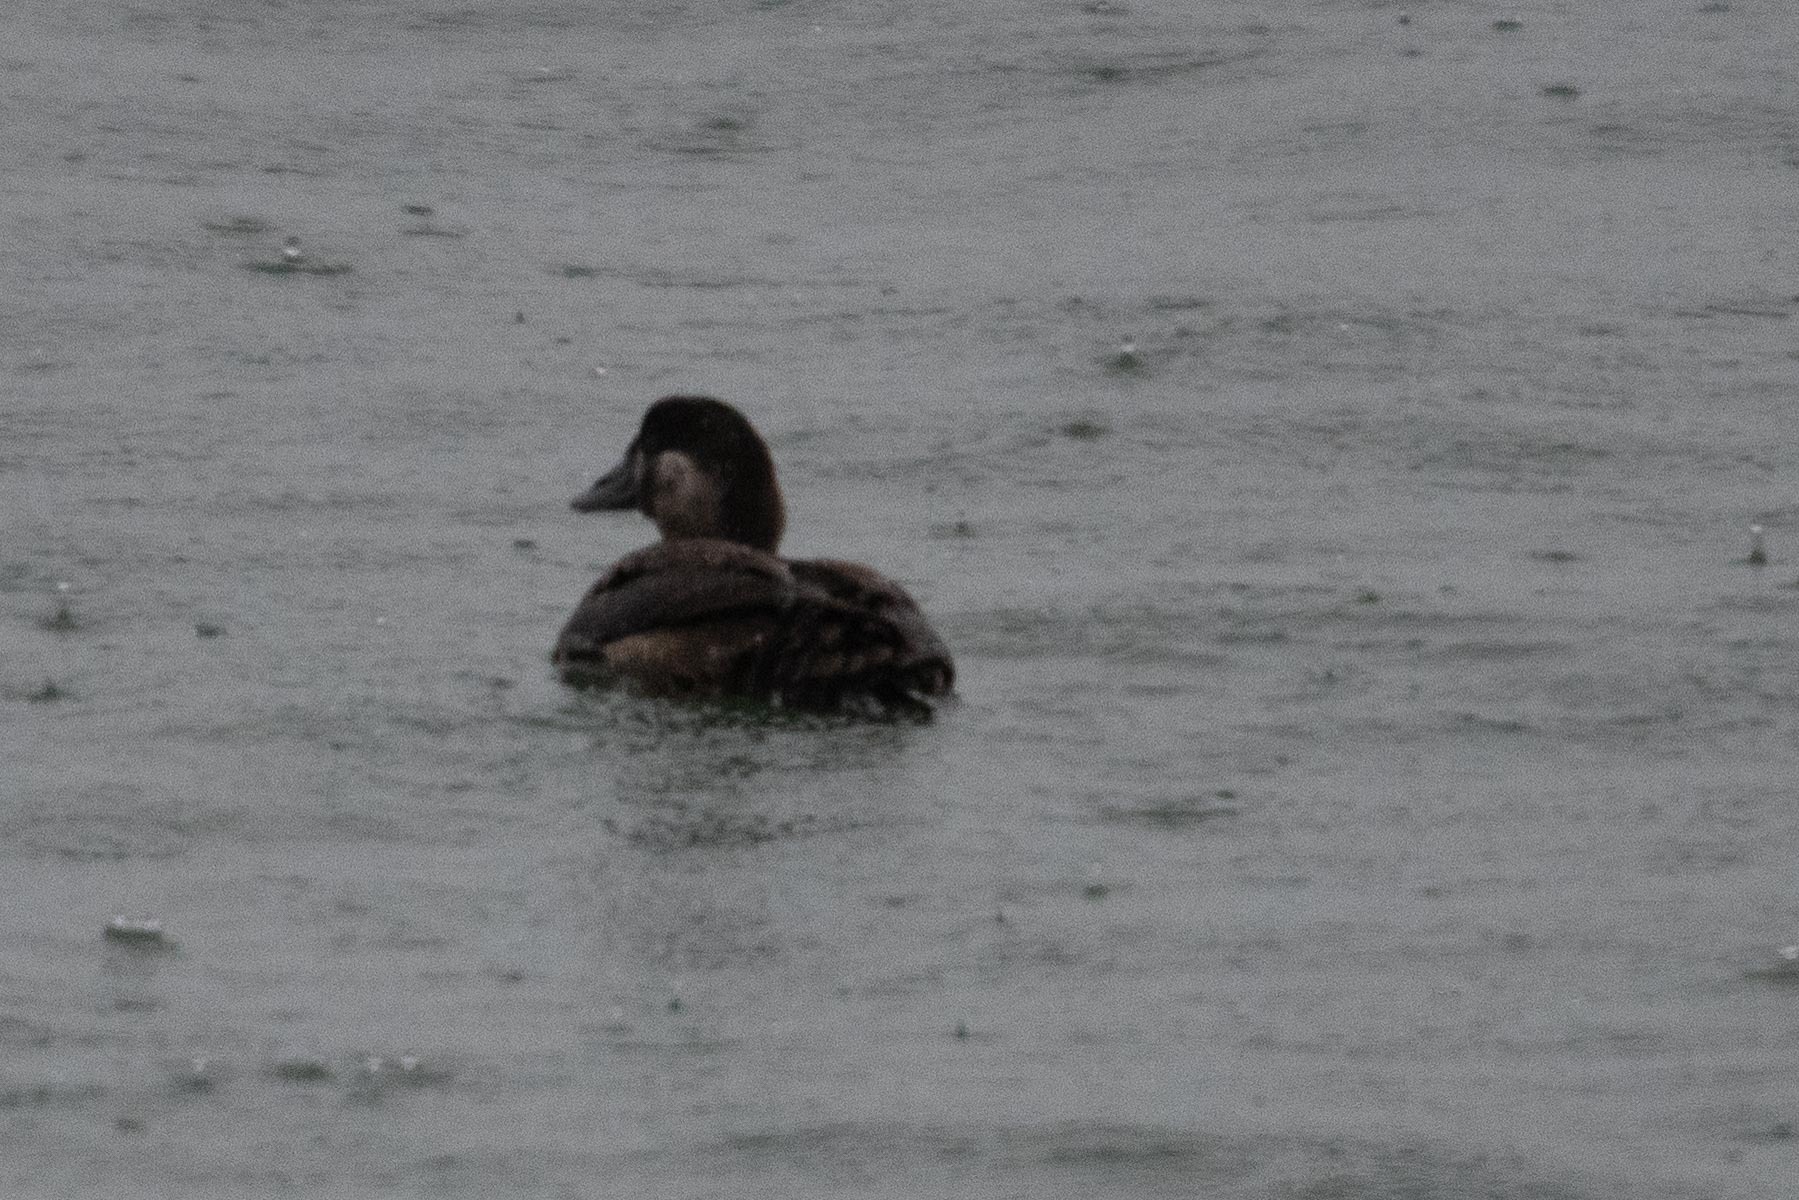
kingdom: Animalia
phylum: Chordata
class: Aves
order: Anseriformes
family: Anatidae
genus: Melanitta
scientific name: Melanitta perspicillata
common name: Surf scoter
